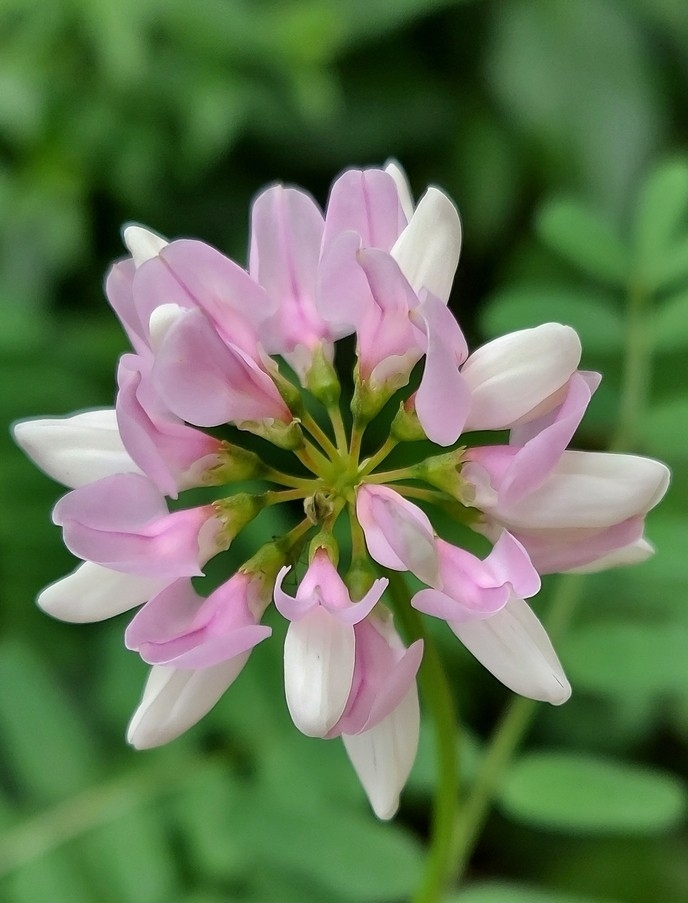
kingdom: Plantae
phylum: Tracheophyta
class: Magnoliopsida
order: Fabales
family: Fabaceae
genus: Coronilla
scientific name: Coronilla varia
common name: Crownvetch
